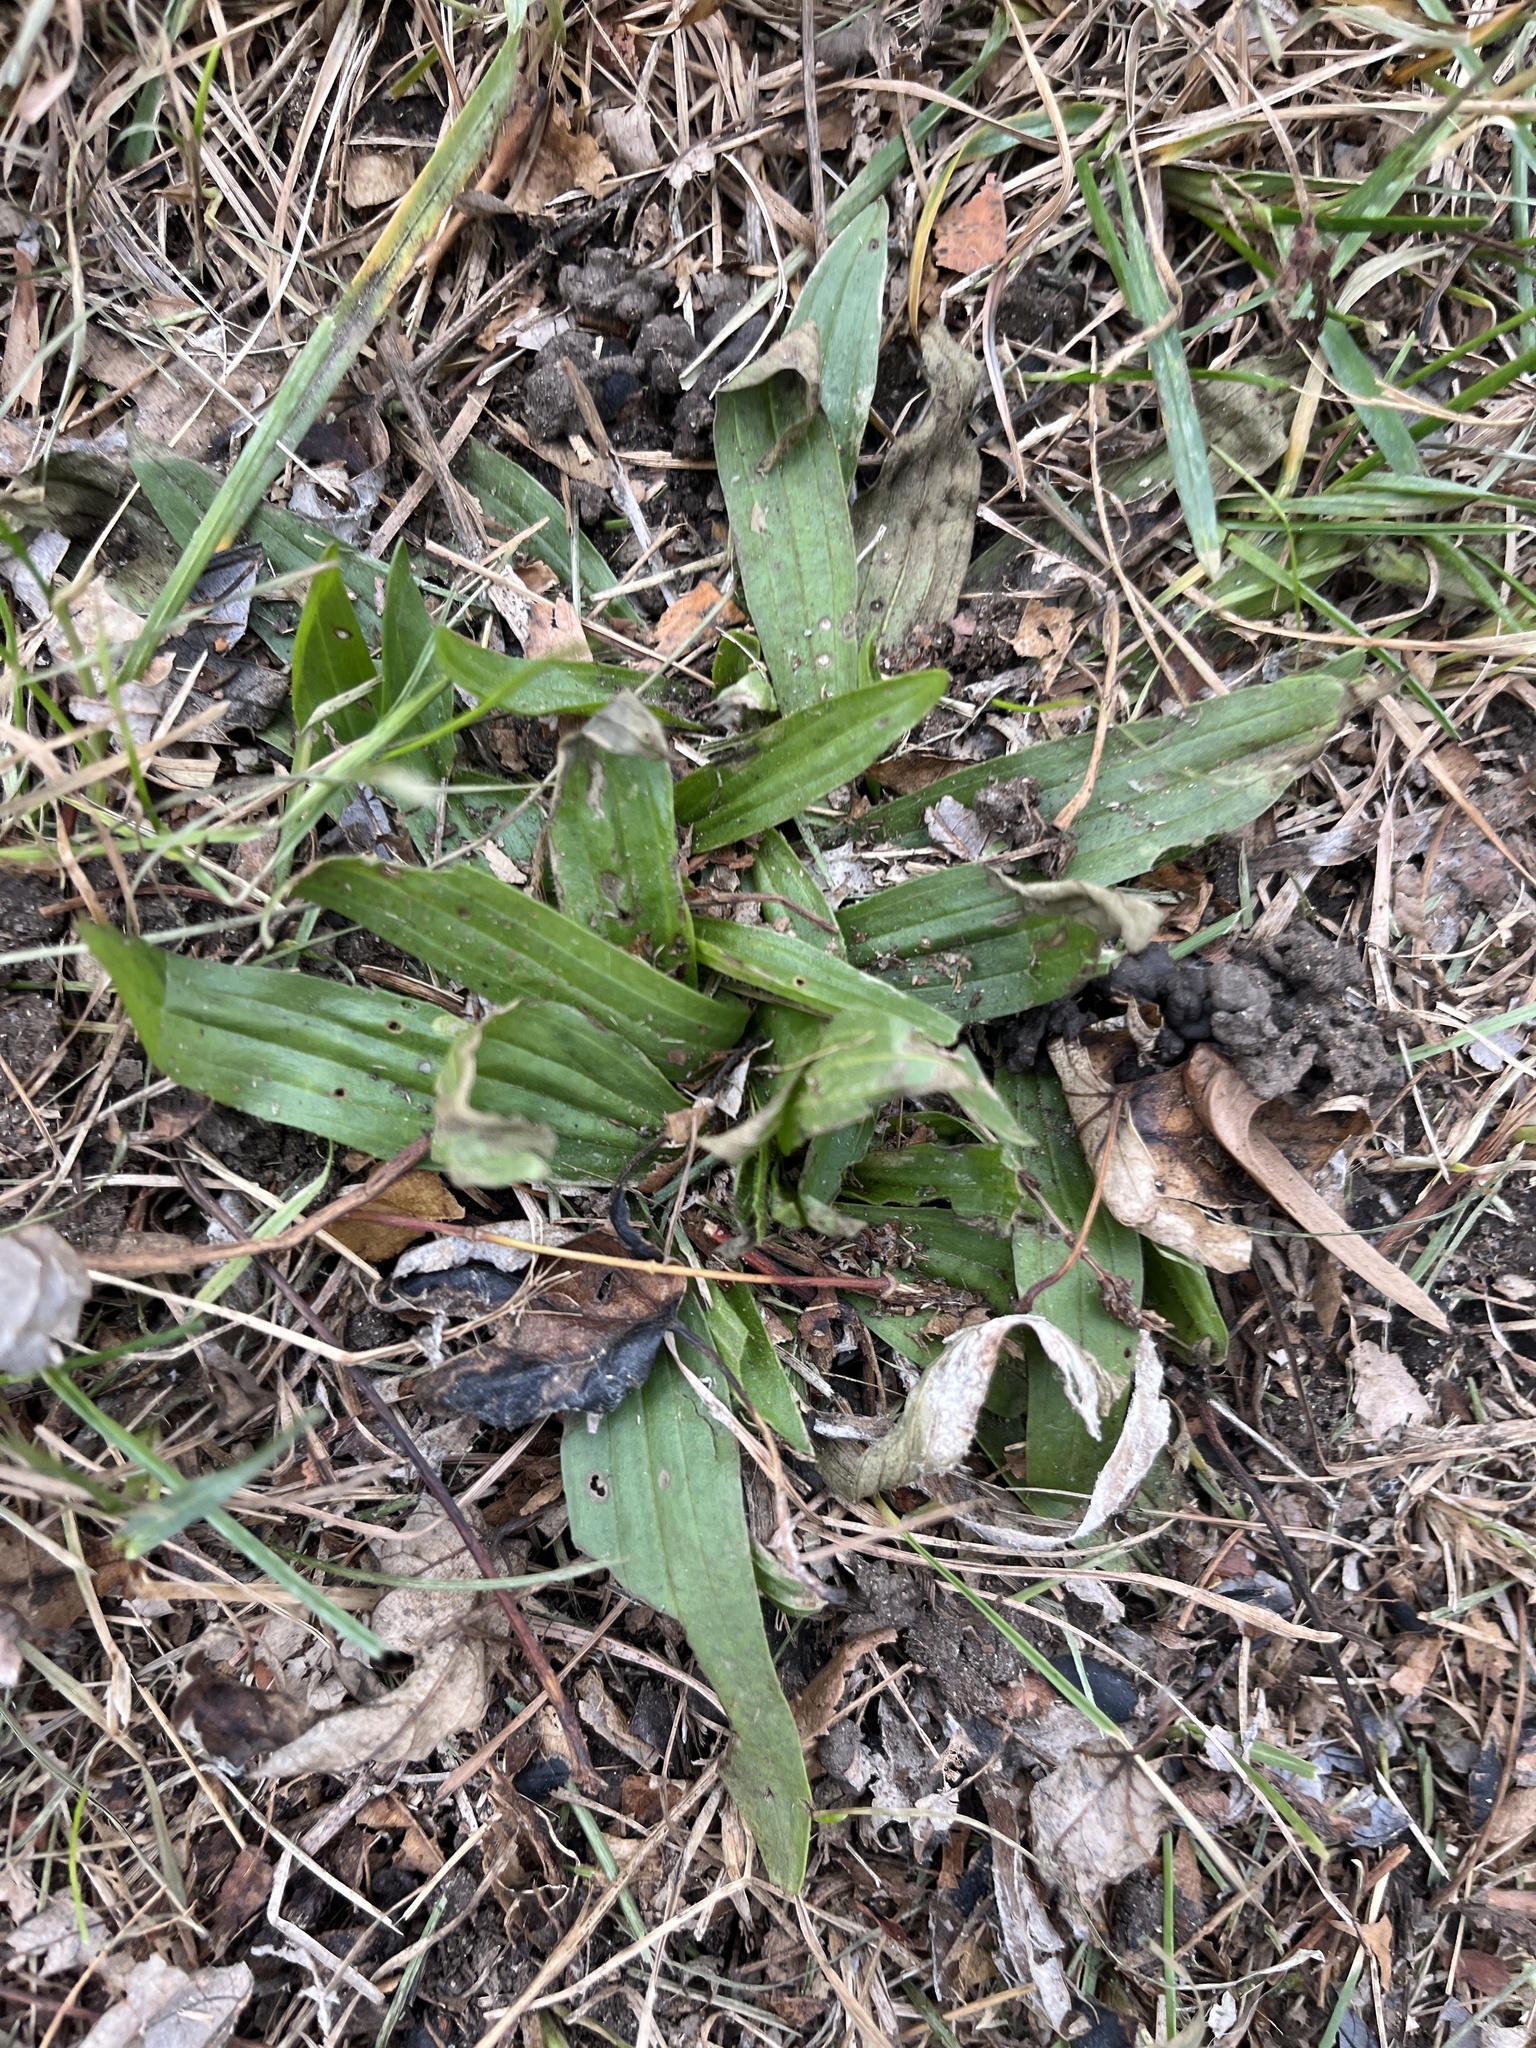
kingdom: Plantae
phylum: Tracheophyta
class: Magnoliopsida
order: Lamiales
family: Plantaginaceae
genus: Plantago
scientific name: Plantago lanceolata
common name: Ribwort plantain
